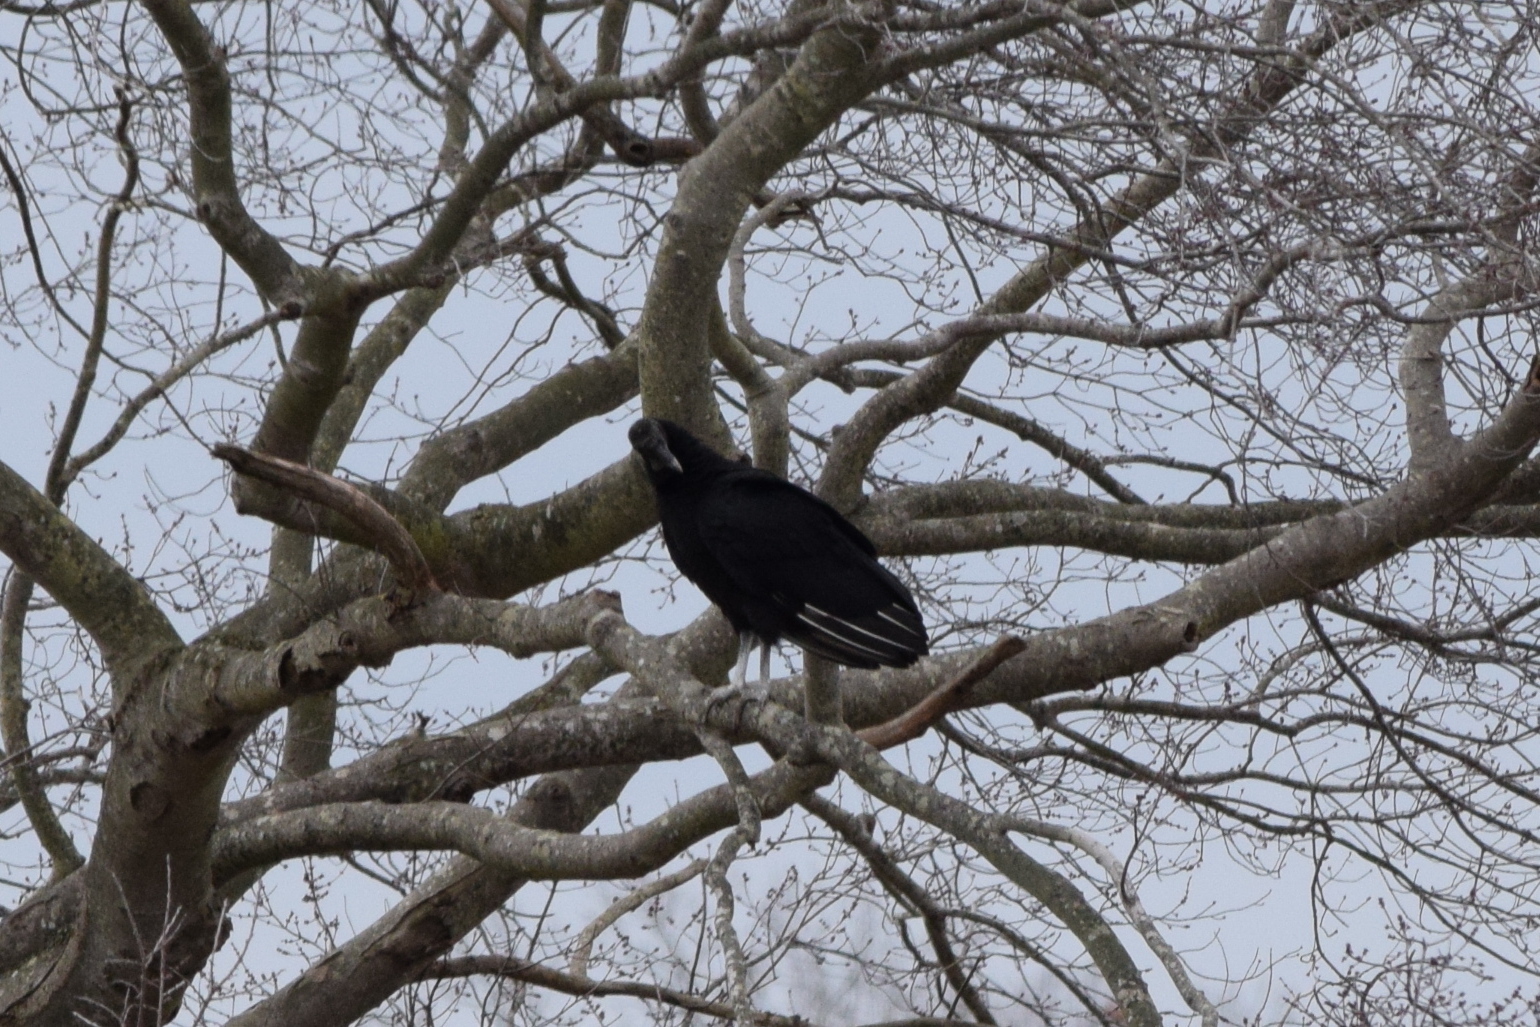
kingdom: Animalia
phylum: Chordata
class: Aves
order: Accipitriformes
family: Cathartidae
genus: Coragyps
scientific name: Coragyps atratus
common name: Black vulture
